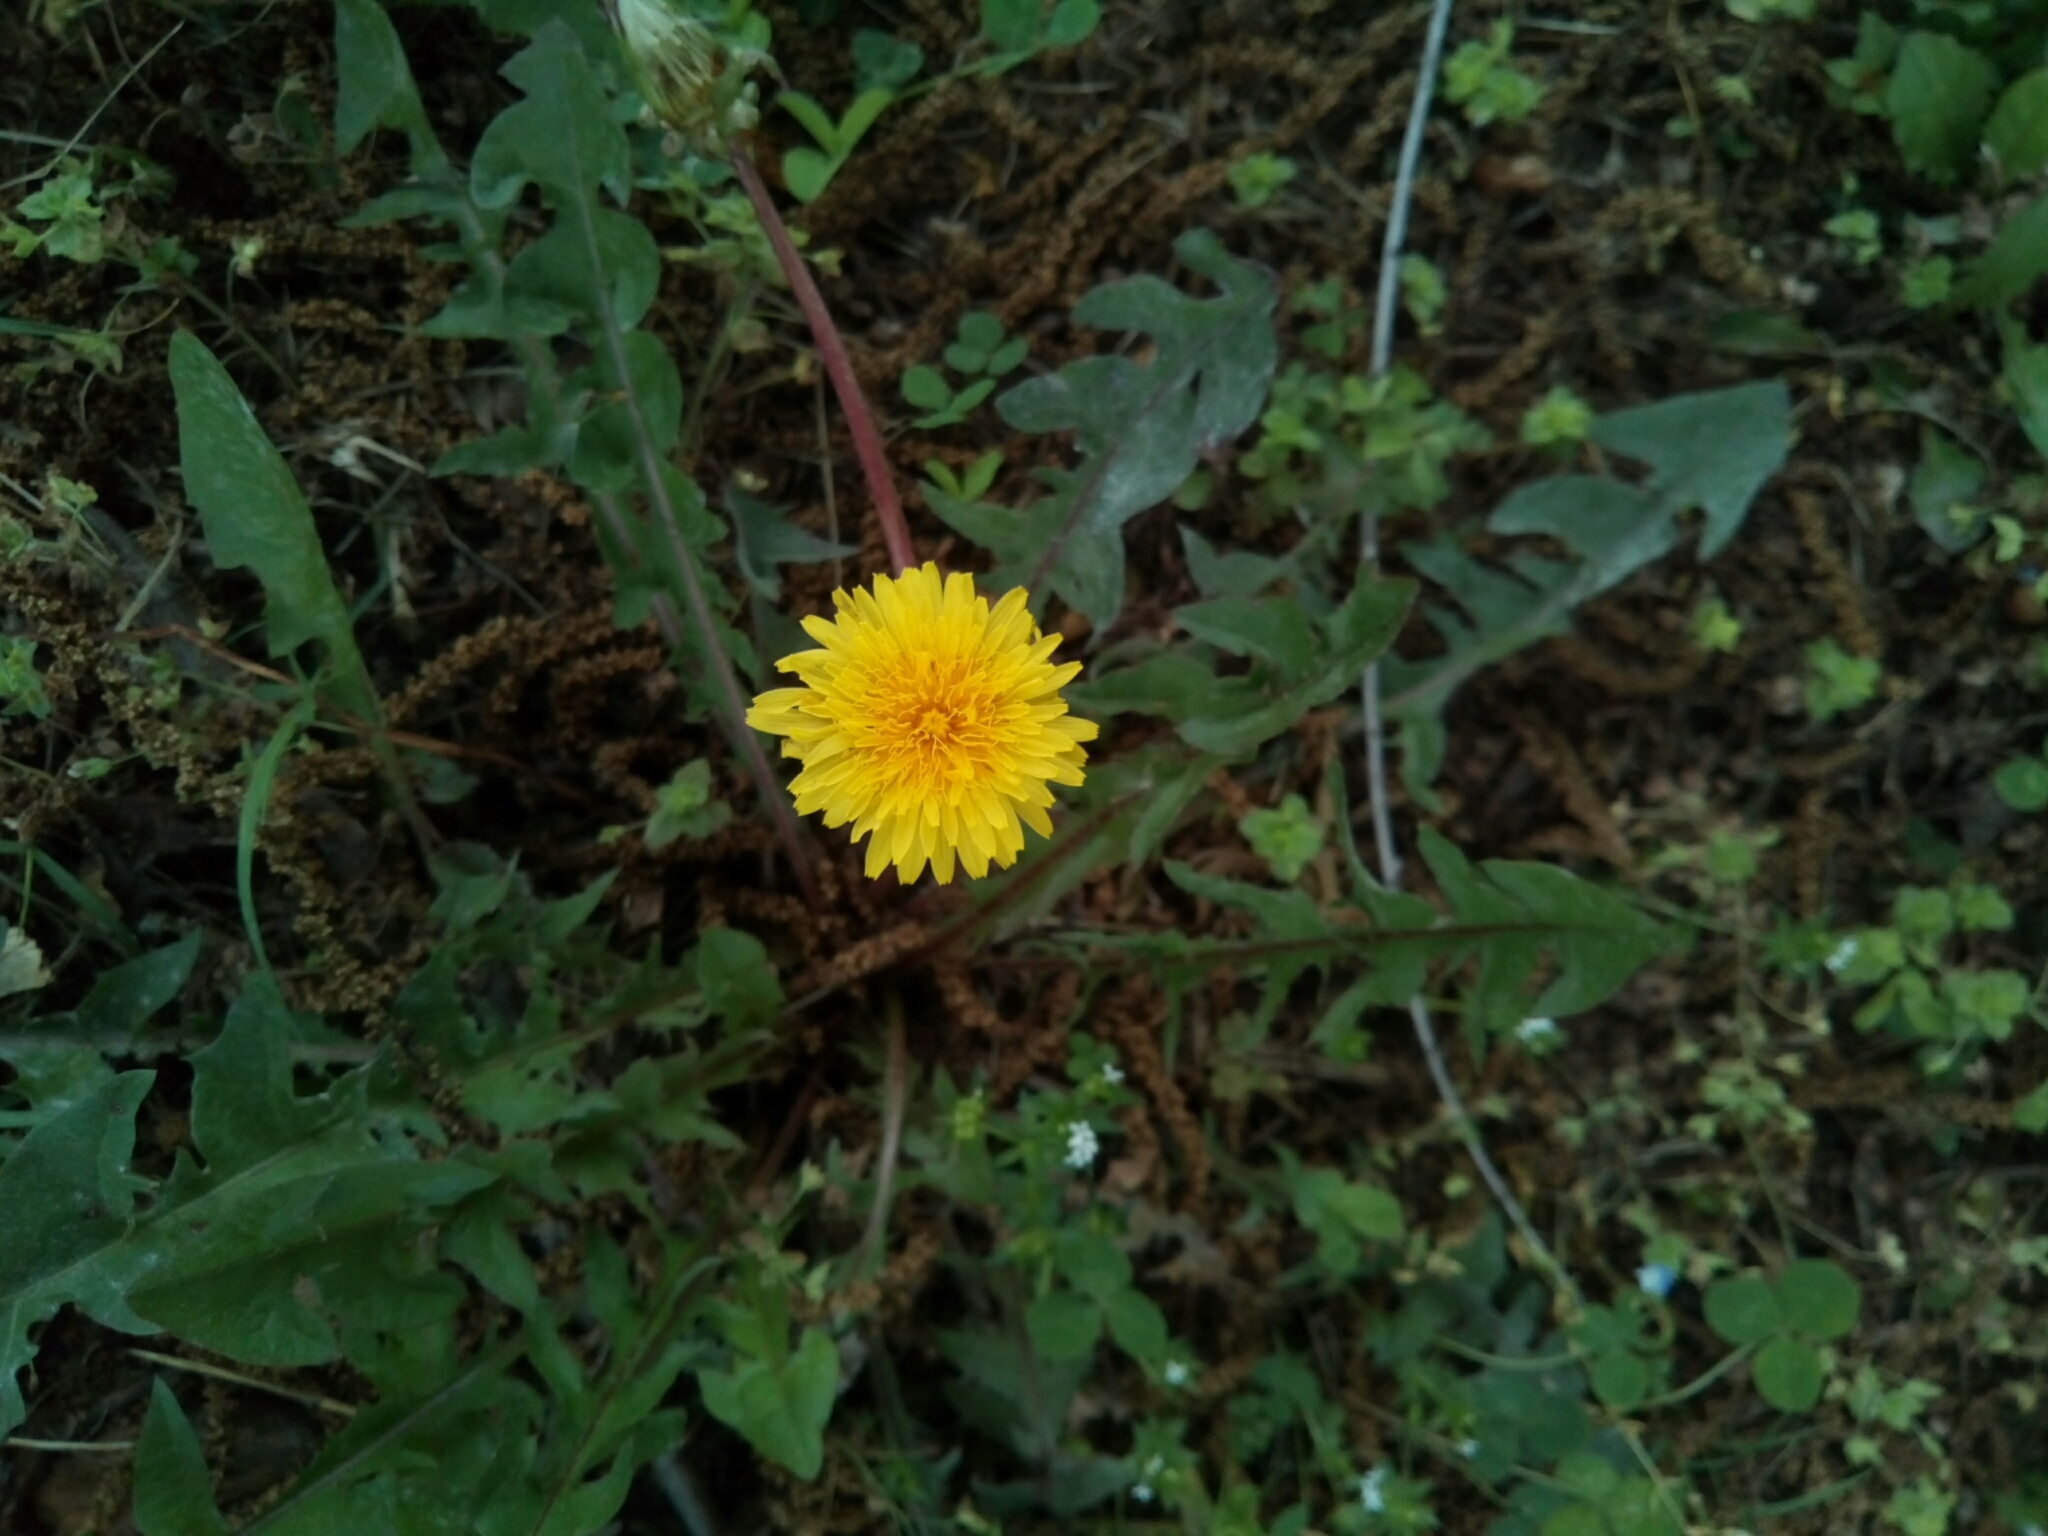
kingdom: Plantae
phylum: Tracheophyta
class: Magnoliopsida
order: Asterales
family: Asteraceae
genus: Taraxacum
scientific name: Taraxacum officinale
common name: Common dandelion
